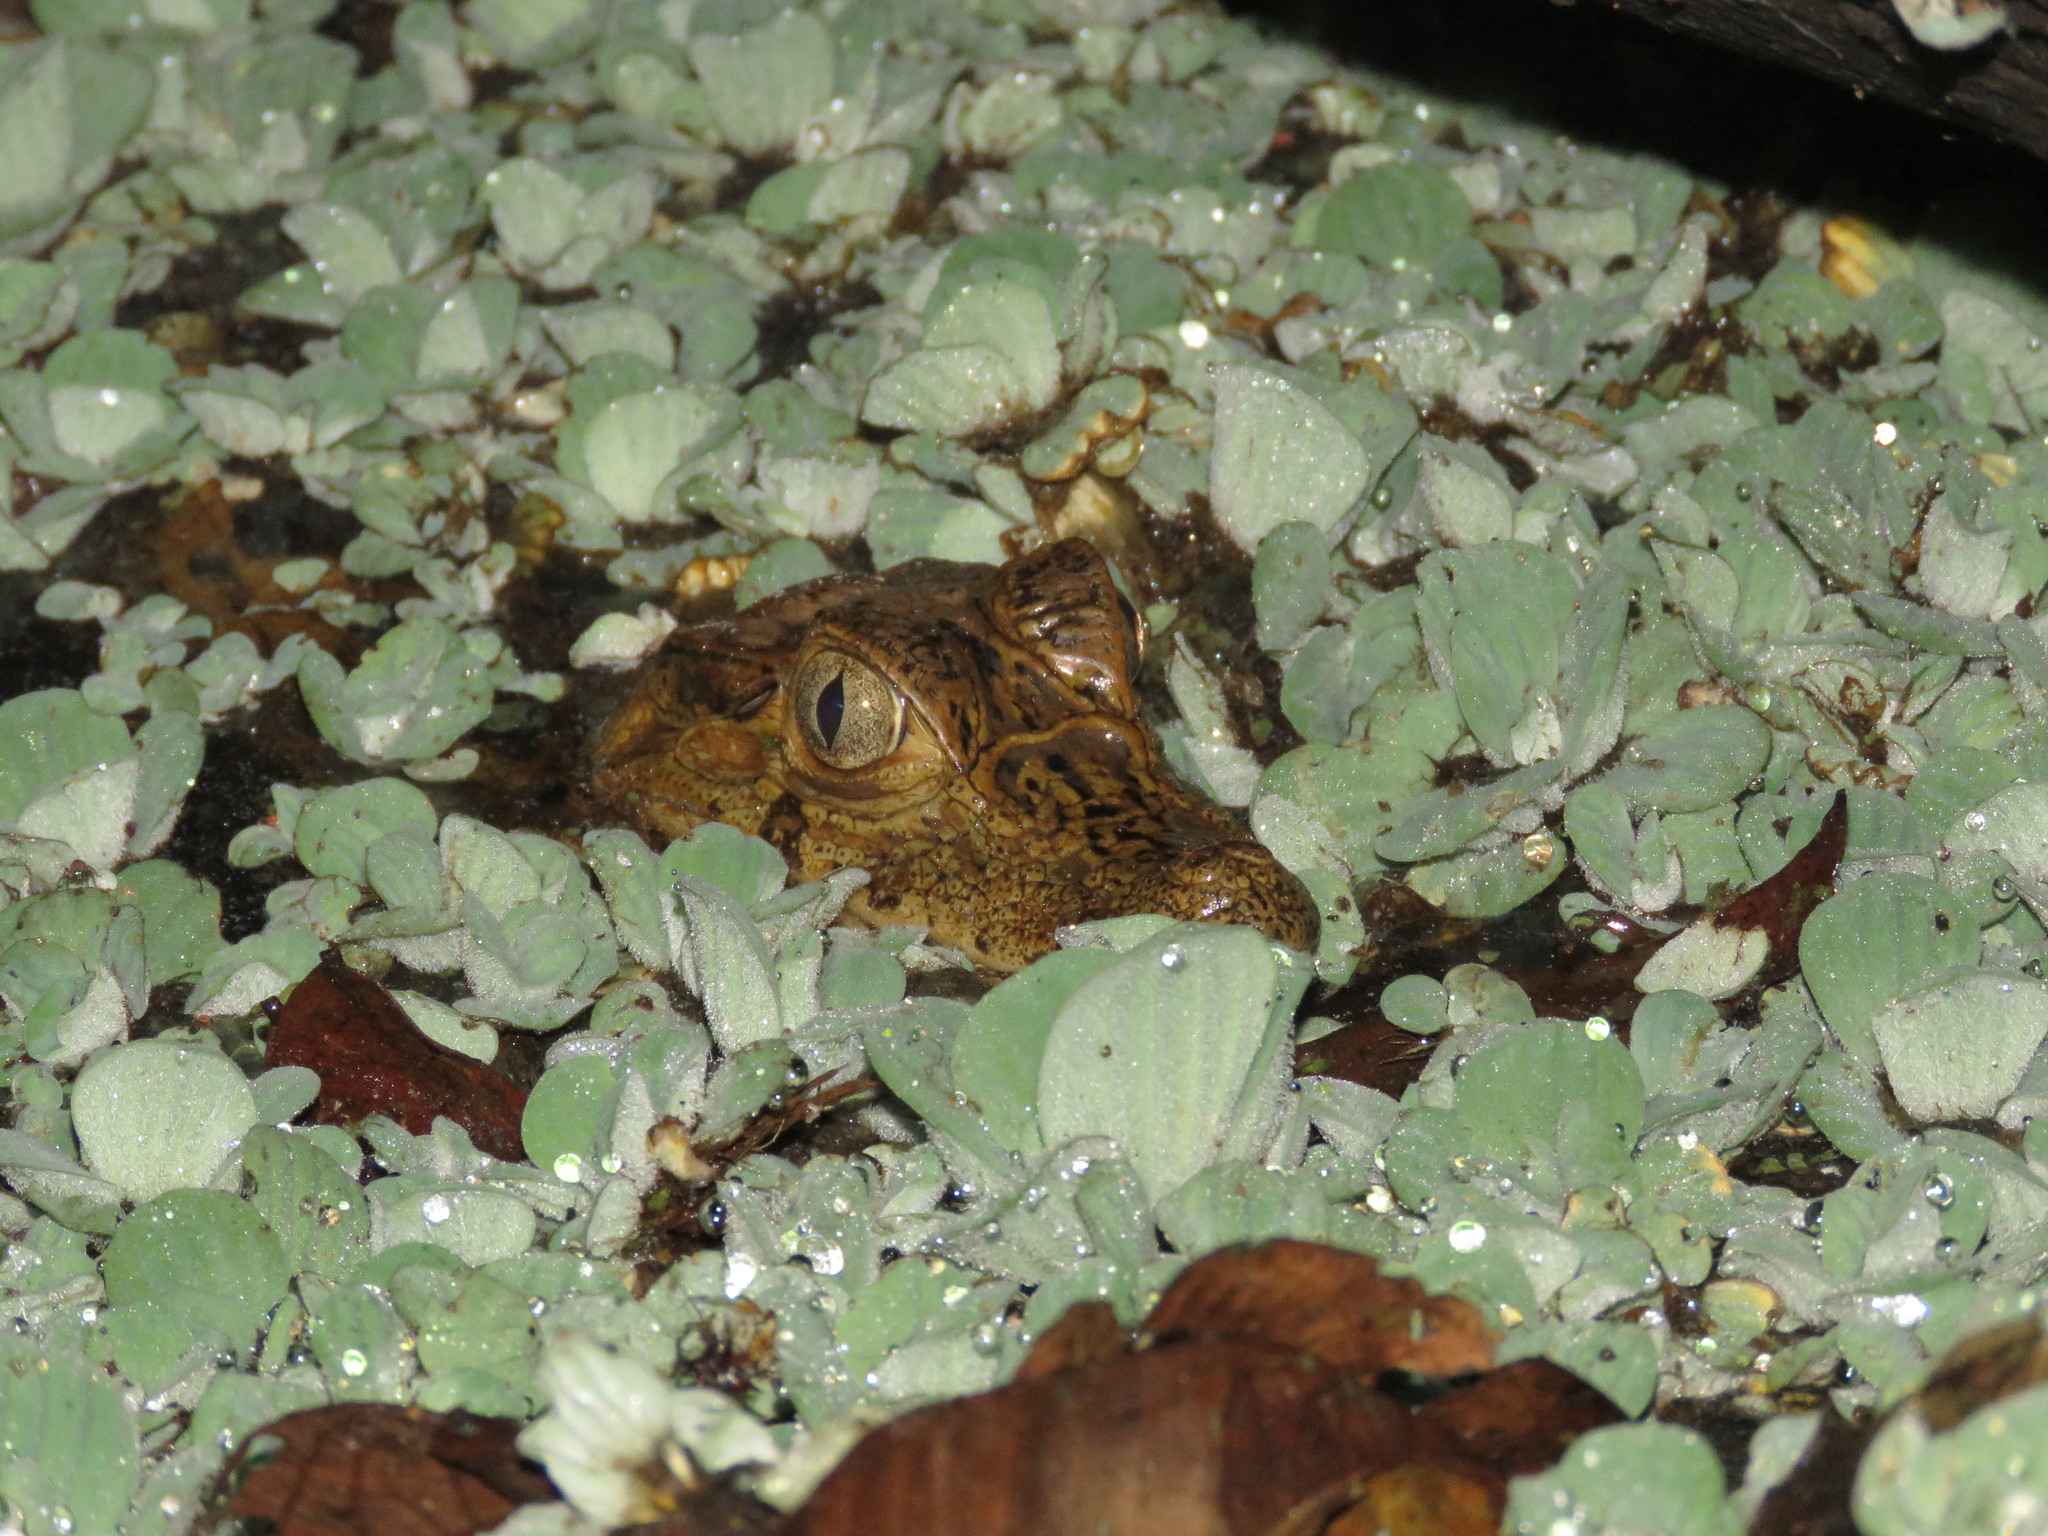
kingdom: Animalia
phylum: Chordata
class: Crocodylia
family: Alligatoridae
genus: Caiman
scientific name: Caiman yacare
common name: Yacare caiman
